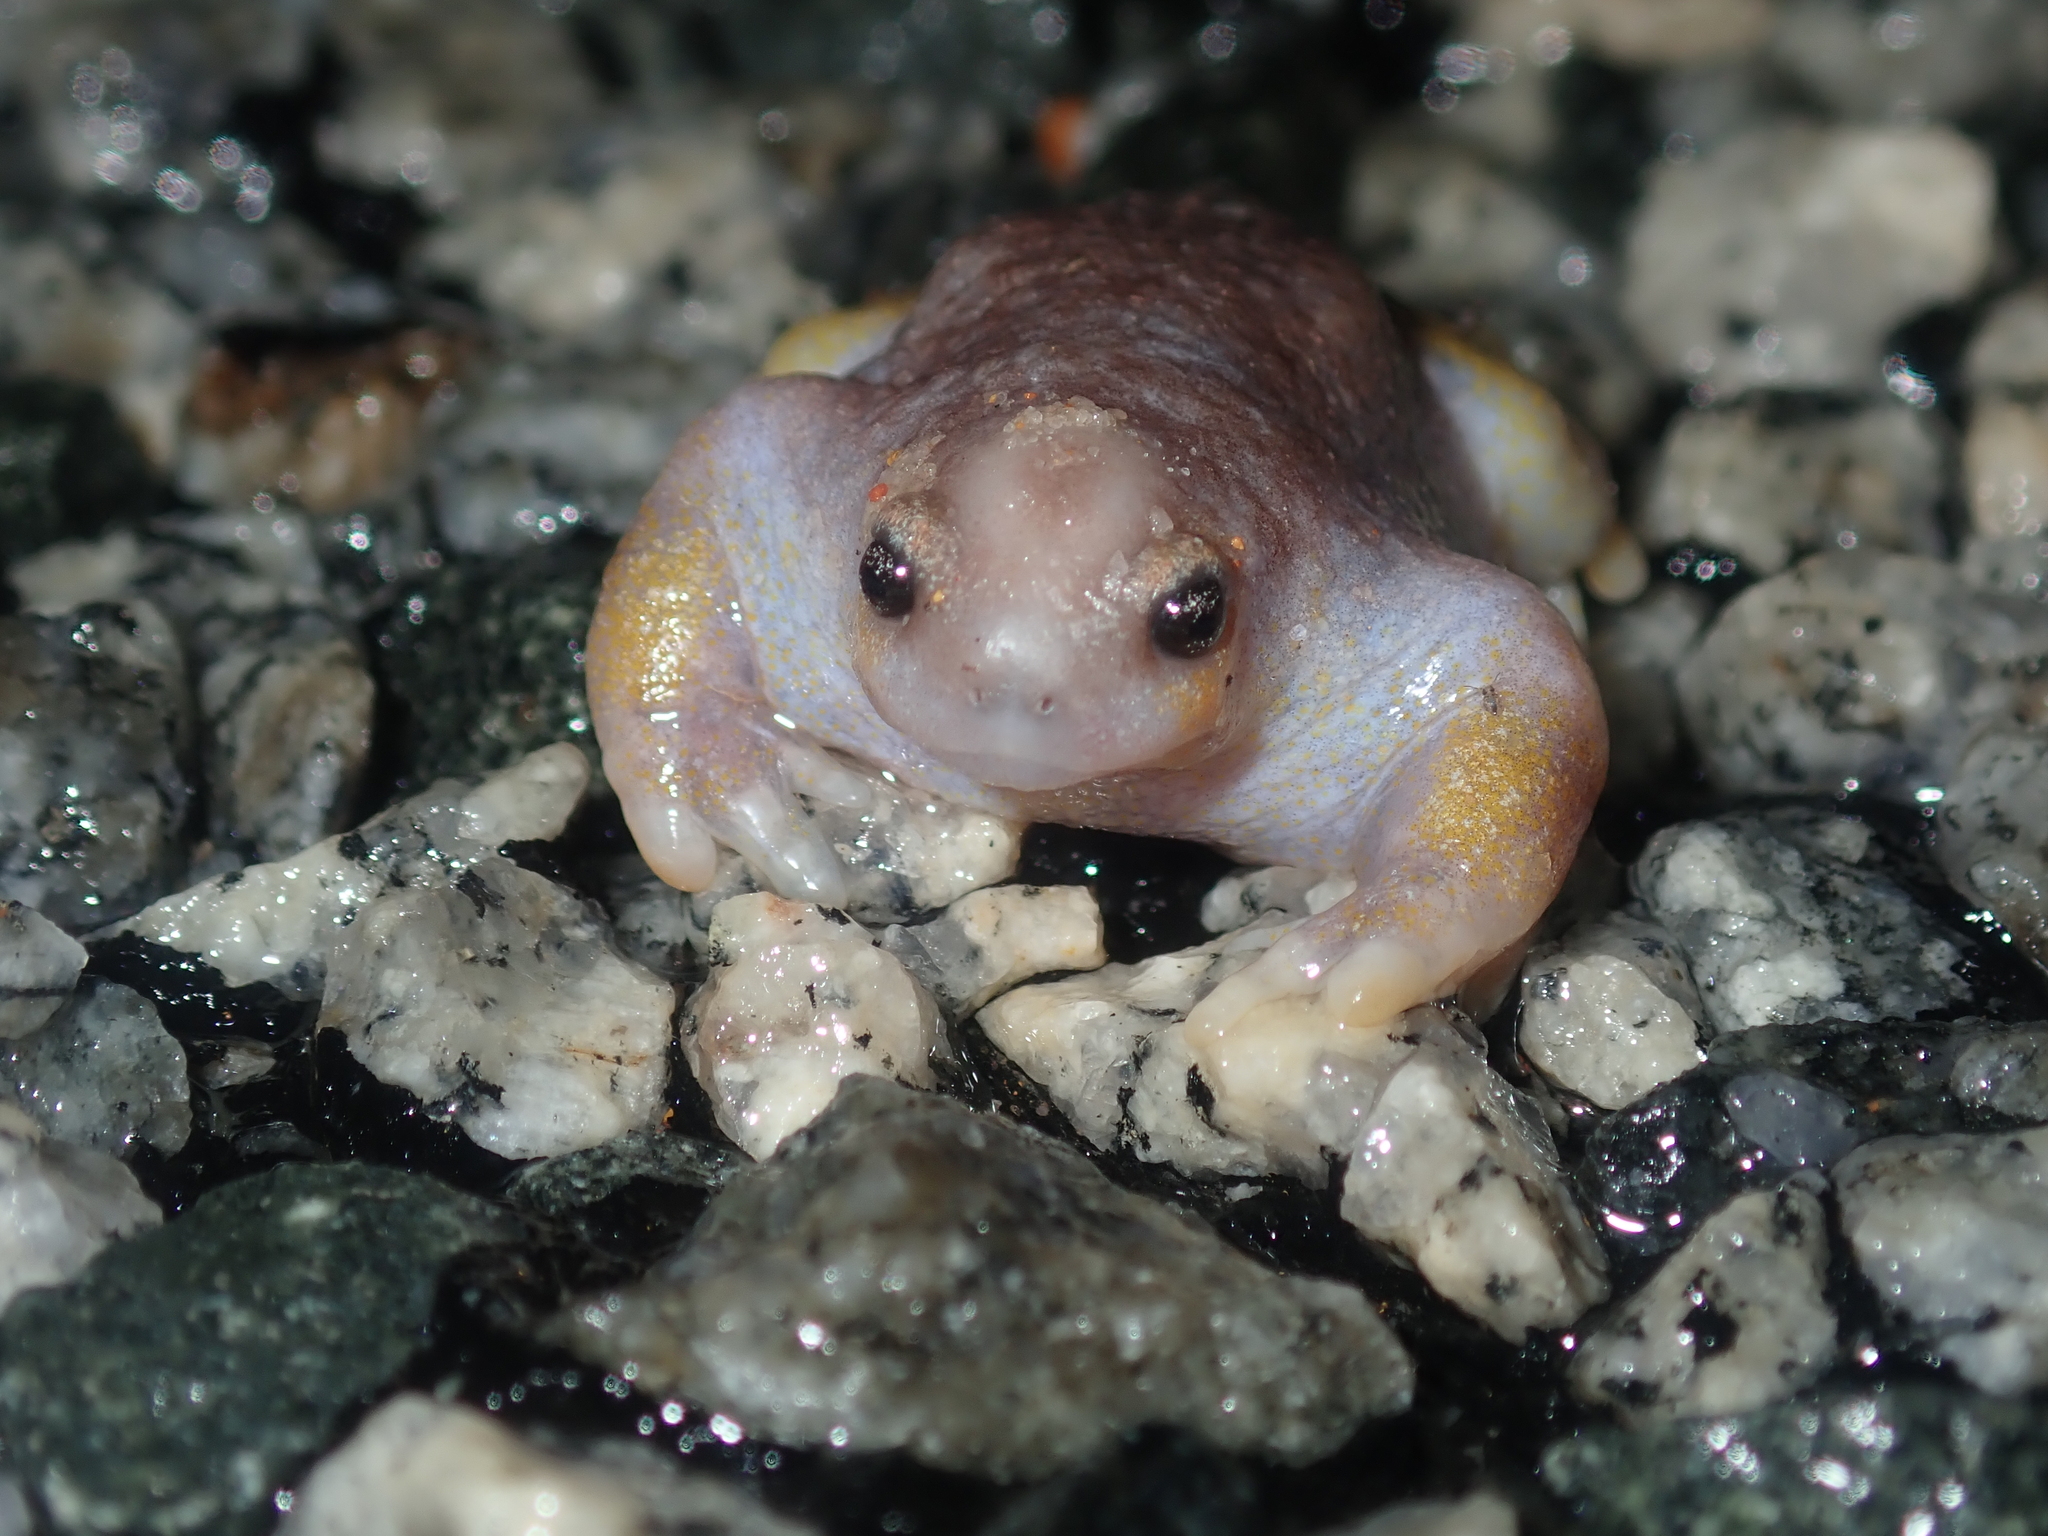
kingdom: Animalia
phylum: Chordata
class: Amphibia
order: Anura
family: Myobatrachidae
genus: Myobatrachus
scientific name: Myobatrachus gouldii
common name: Turtle frog
